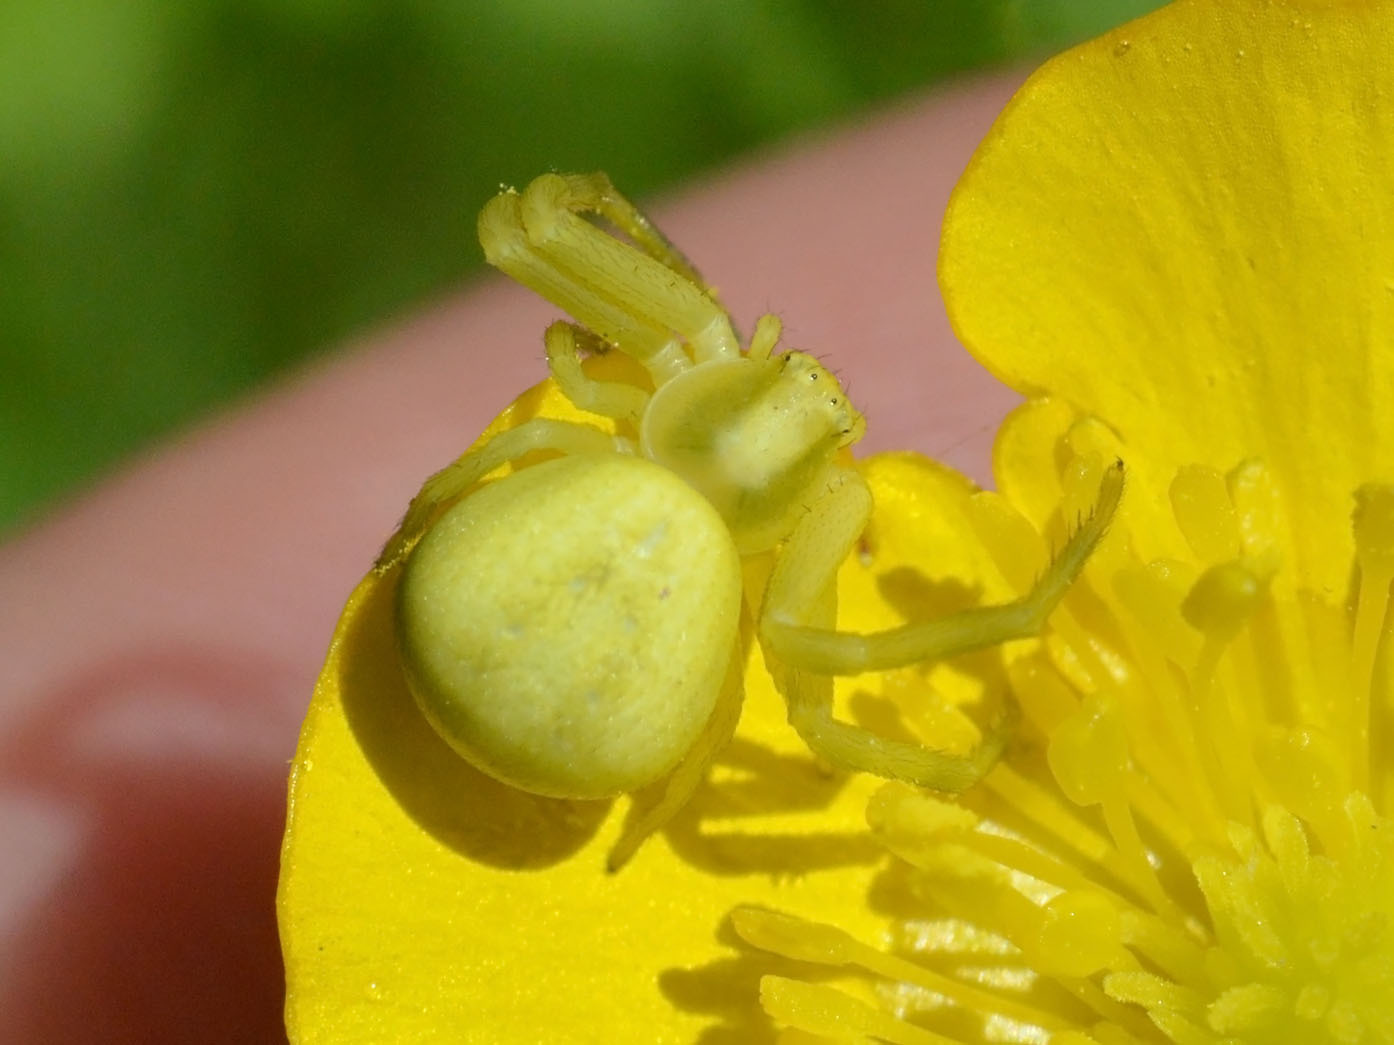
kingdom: Animalia
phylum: Arthropoda
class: Arachnida
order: Araneae
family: Thomisidae
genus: Misumena
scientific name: Misumena vatia
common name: Goldenrod crab spider
